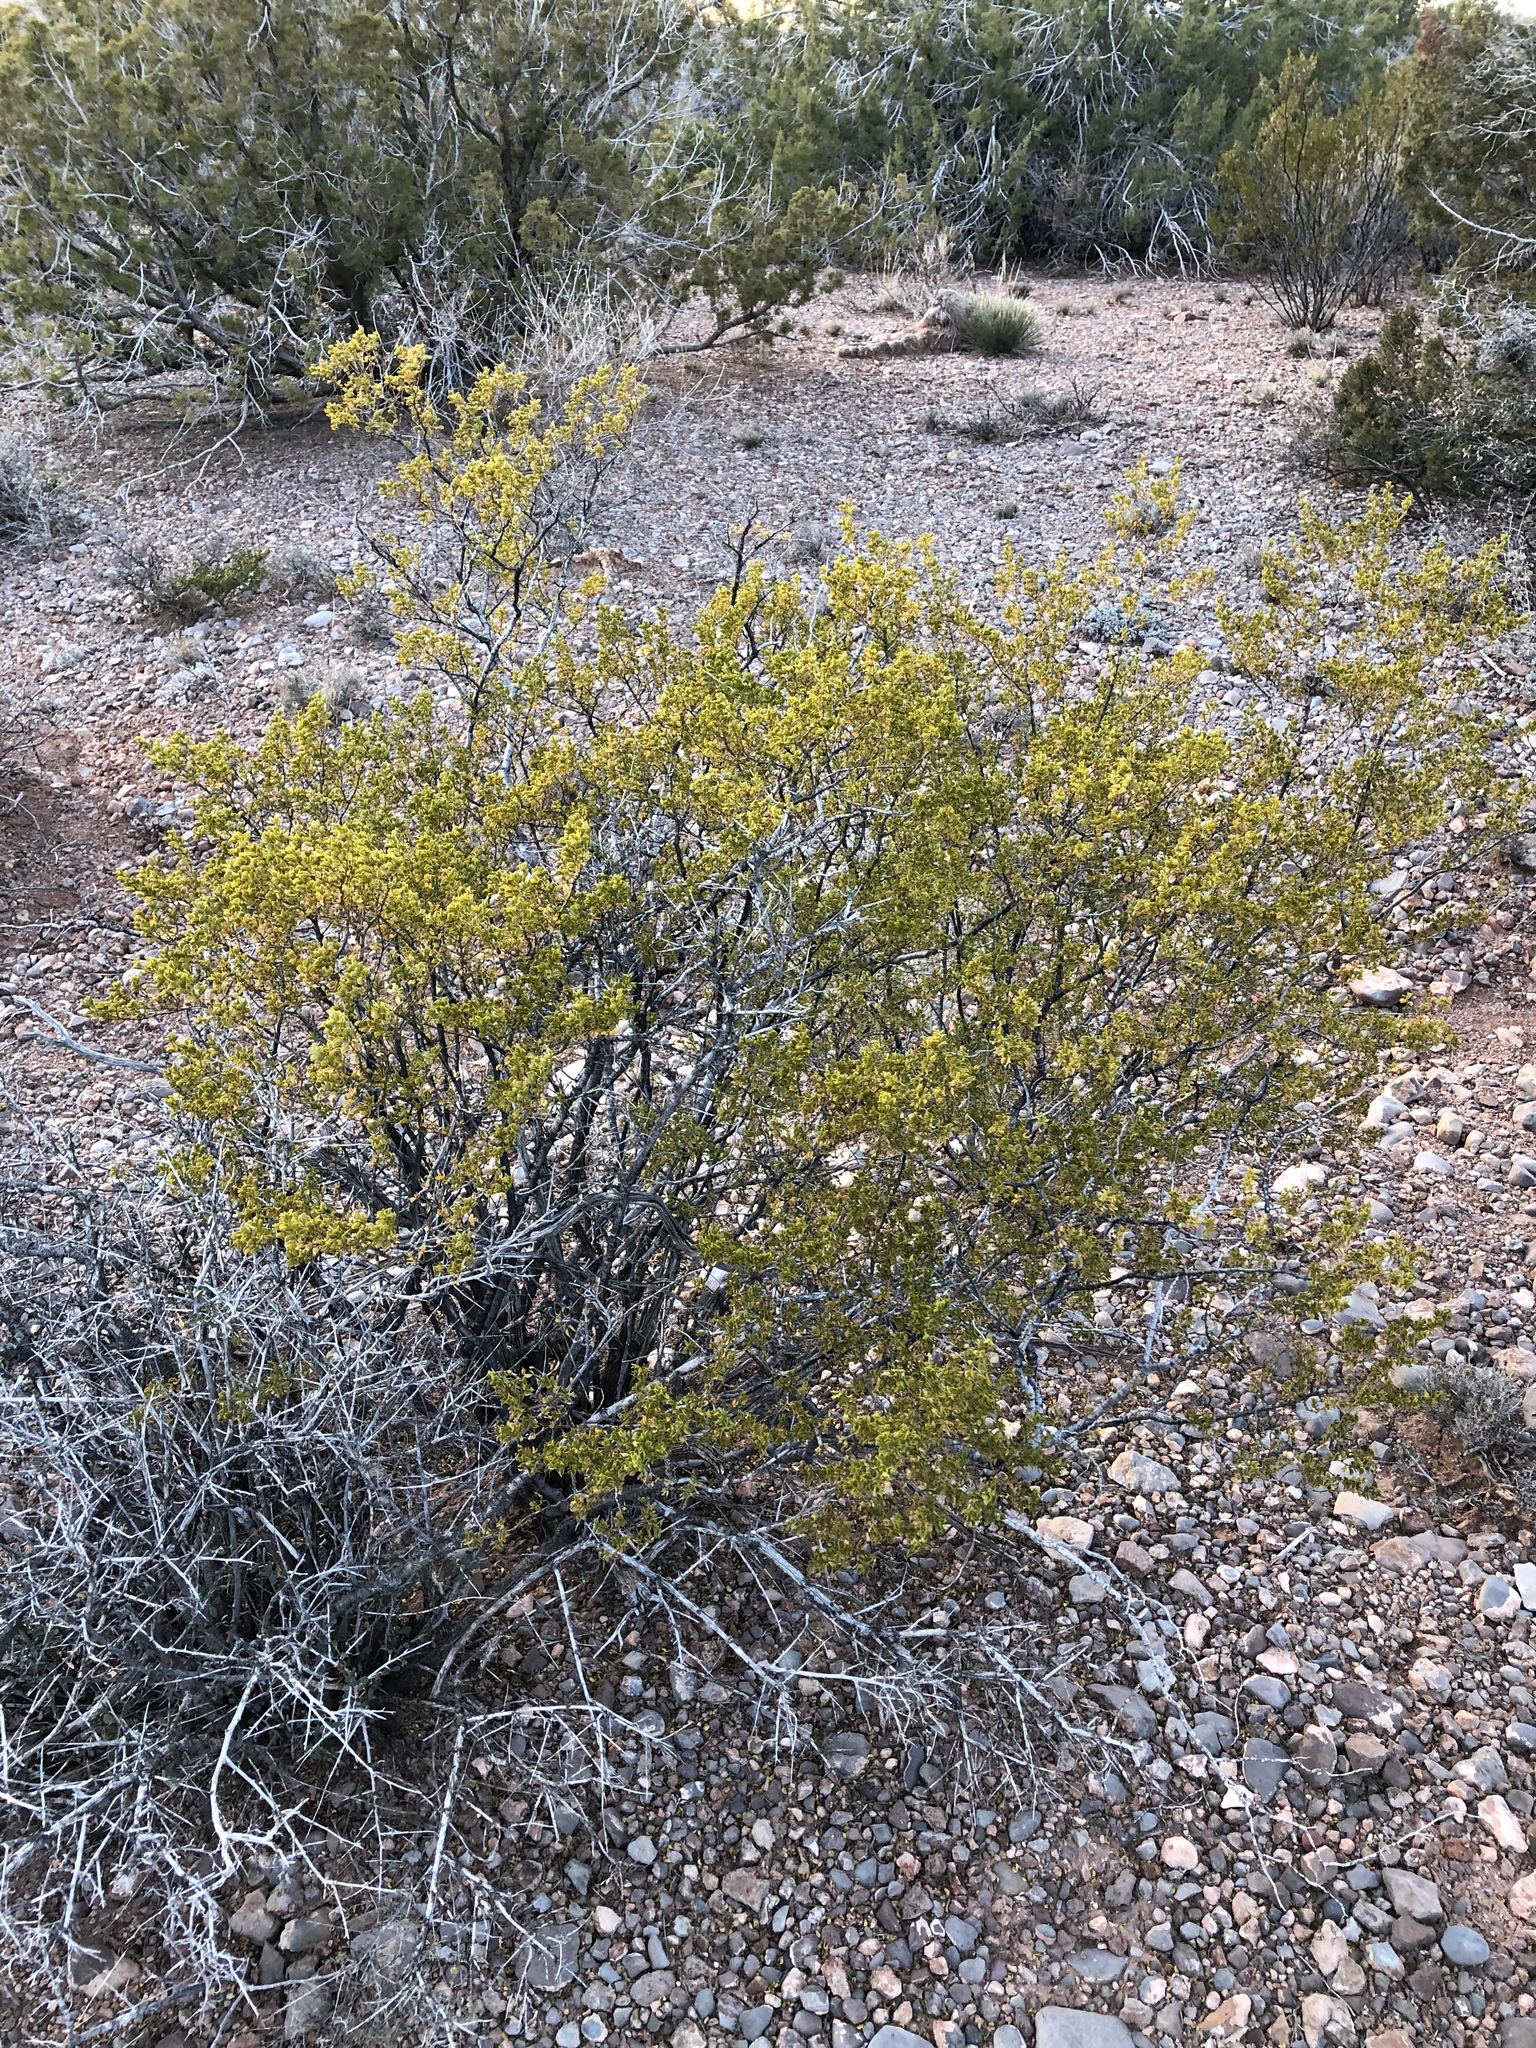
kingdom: Plantae
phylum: Tracheophyta
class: Magnoliopsida
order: Zygophyllales
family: Zygophyllaceae
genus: Larrea
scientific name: Larrea tridentata
